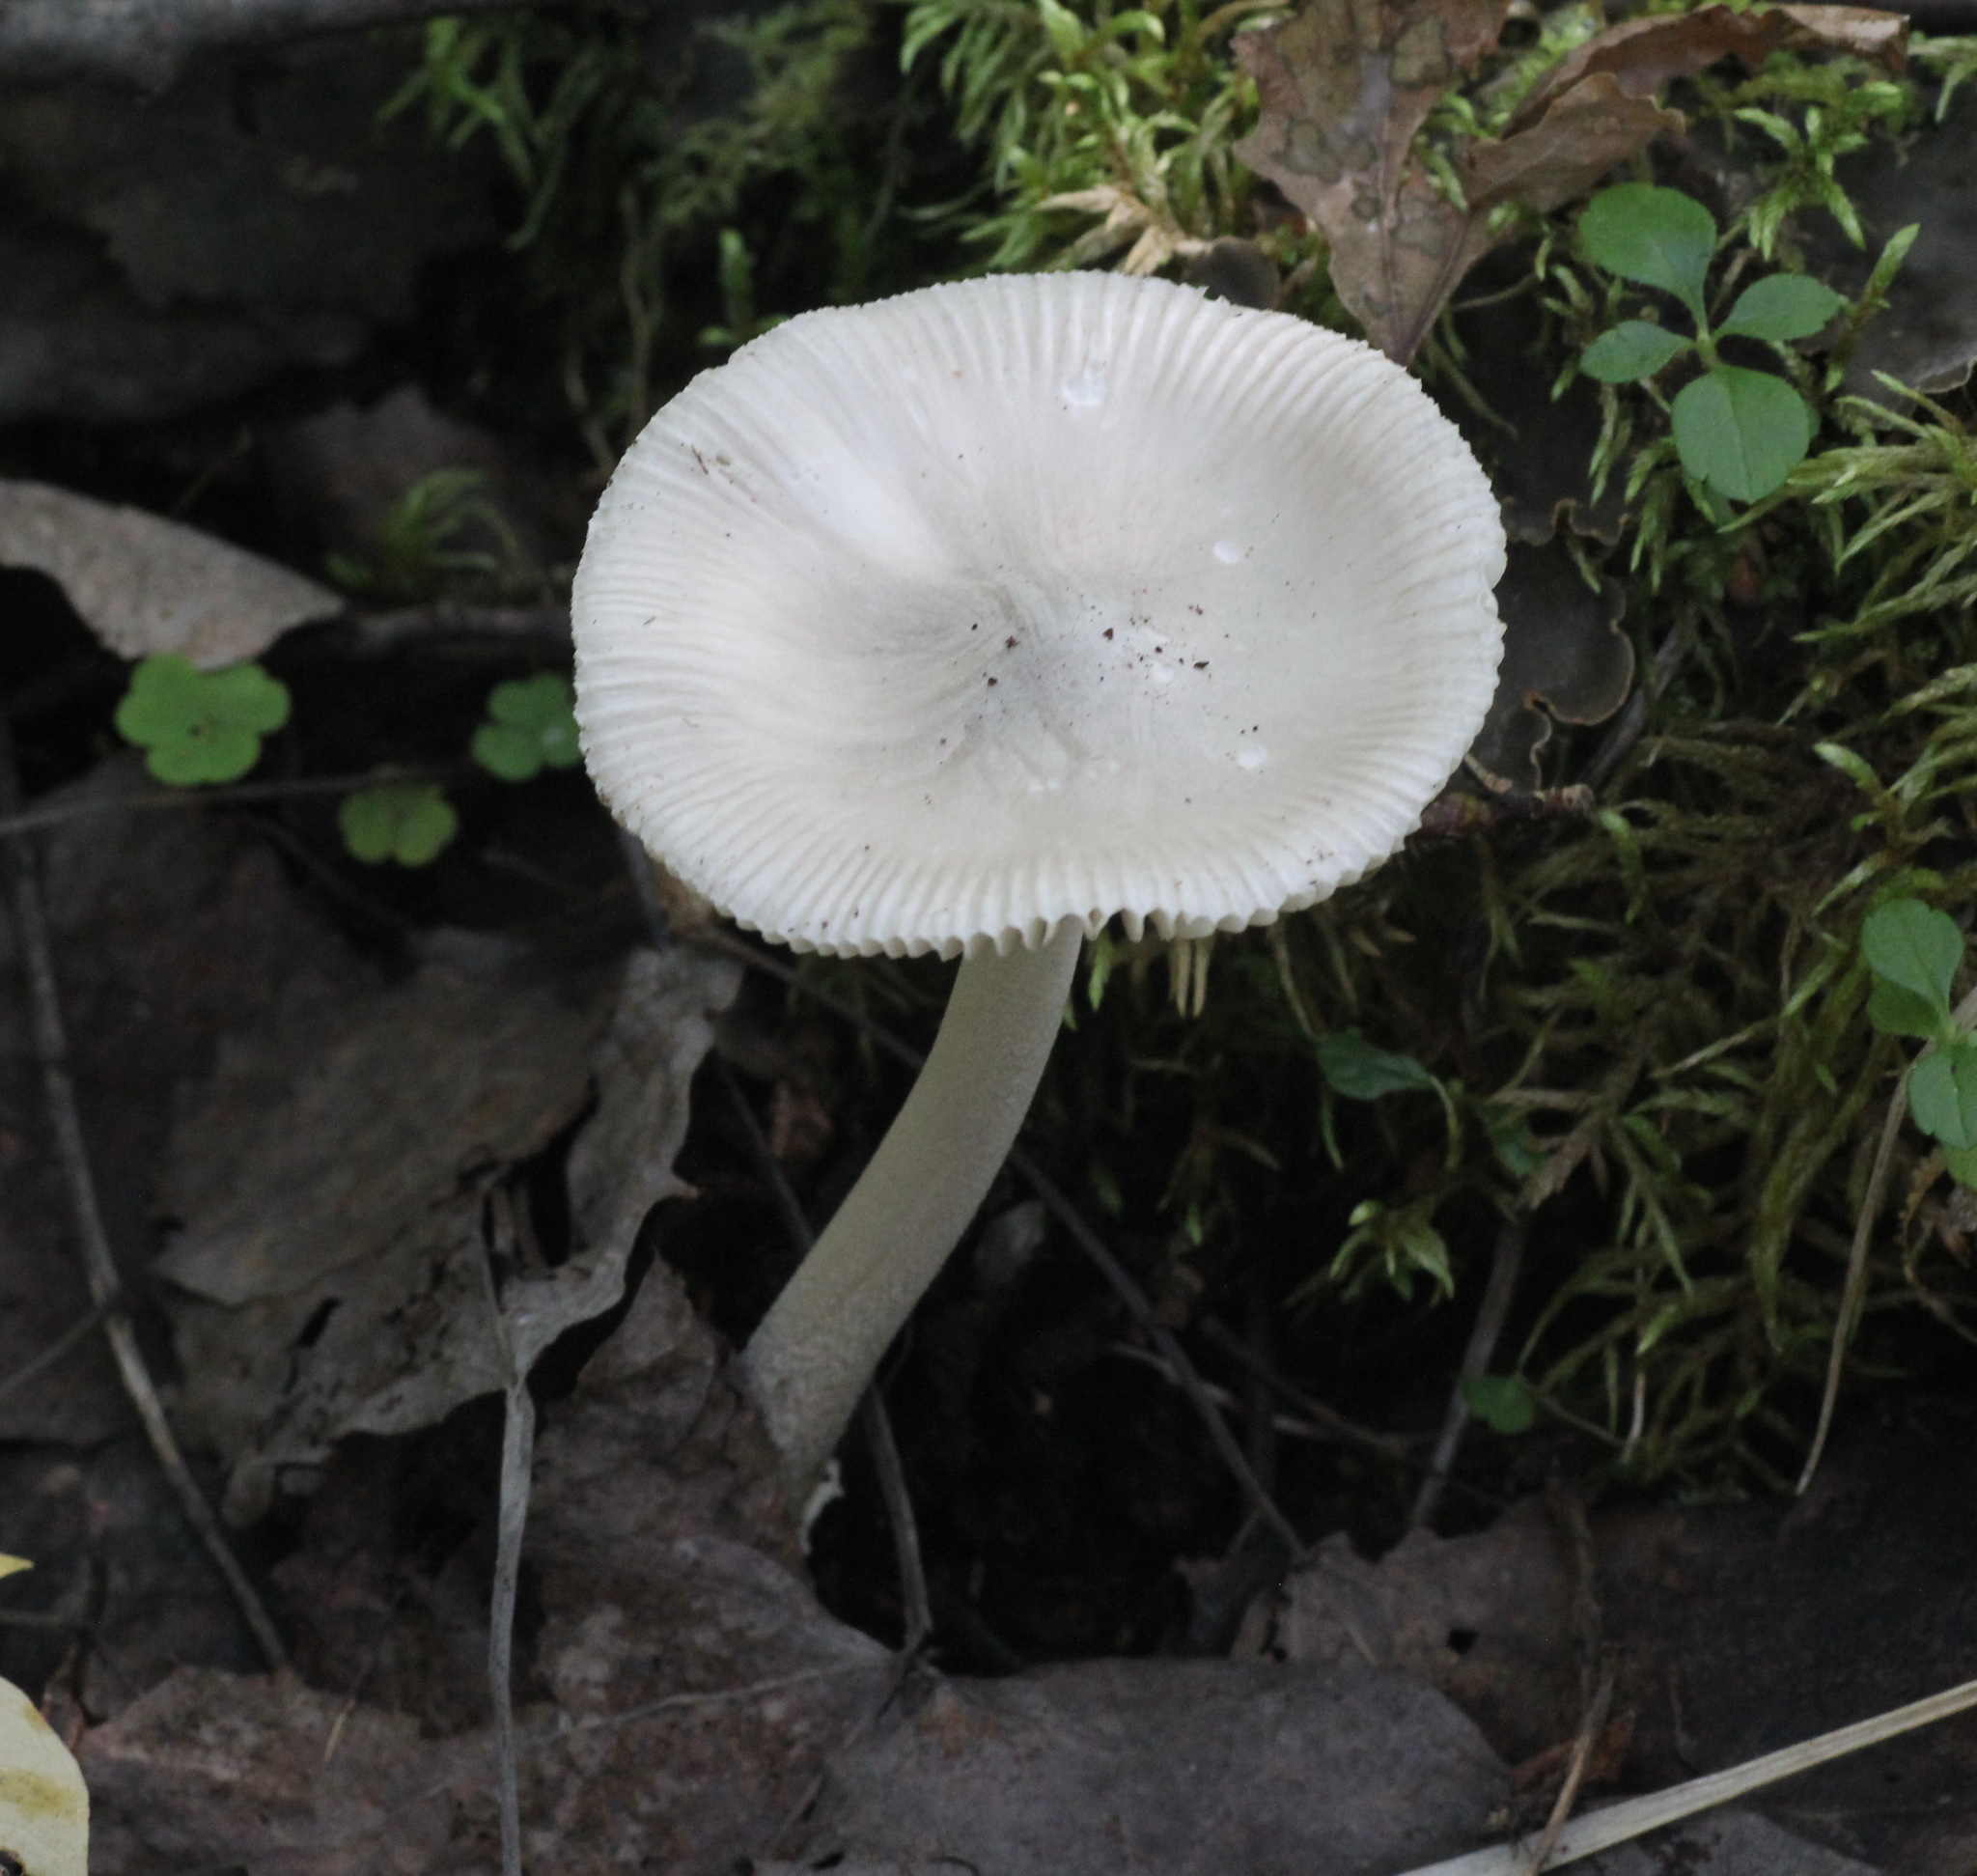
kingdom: Fungi
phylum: Basidiomycota
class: Agaricomycetes
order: Agaricales
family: Amanitaceae
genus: Amanita
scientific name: Amanita vaginata
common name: Grisette
